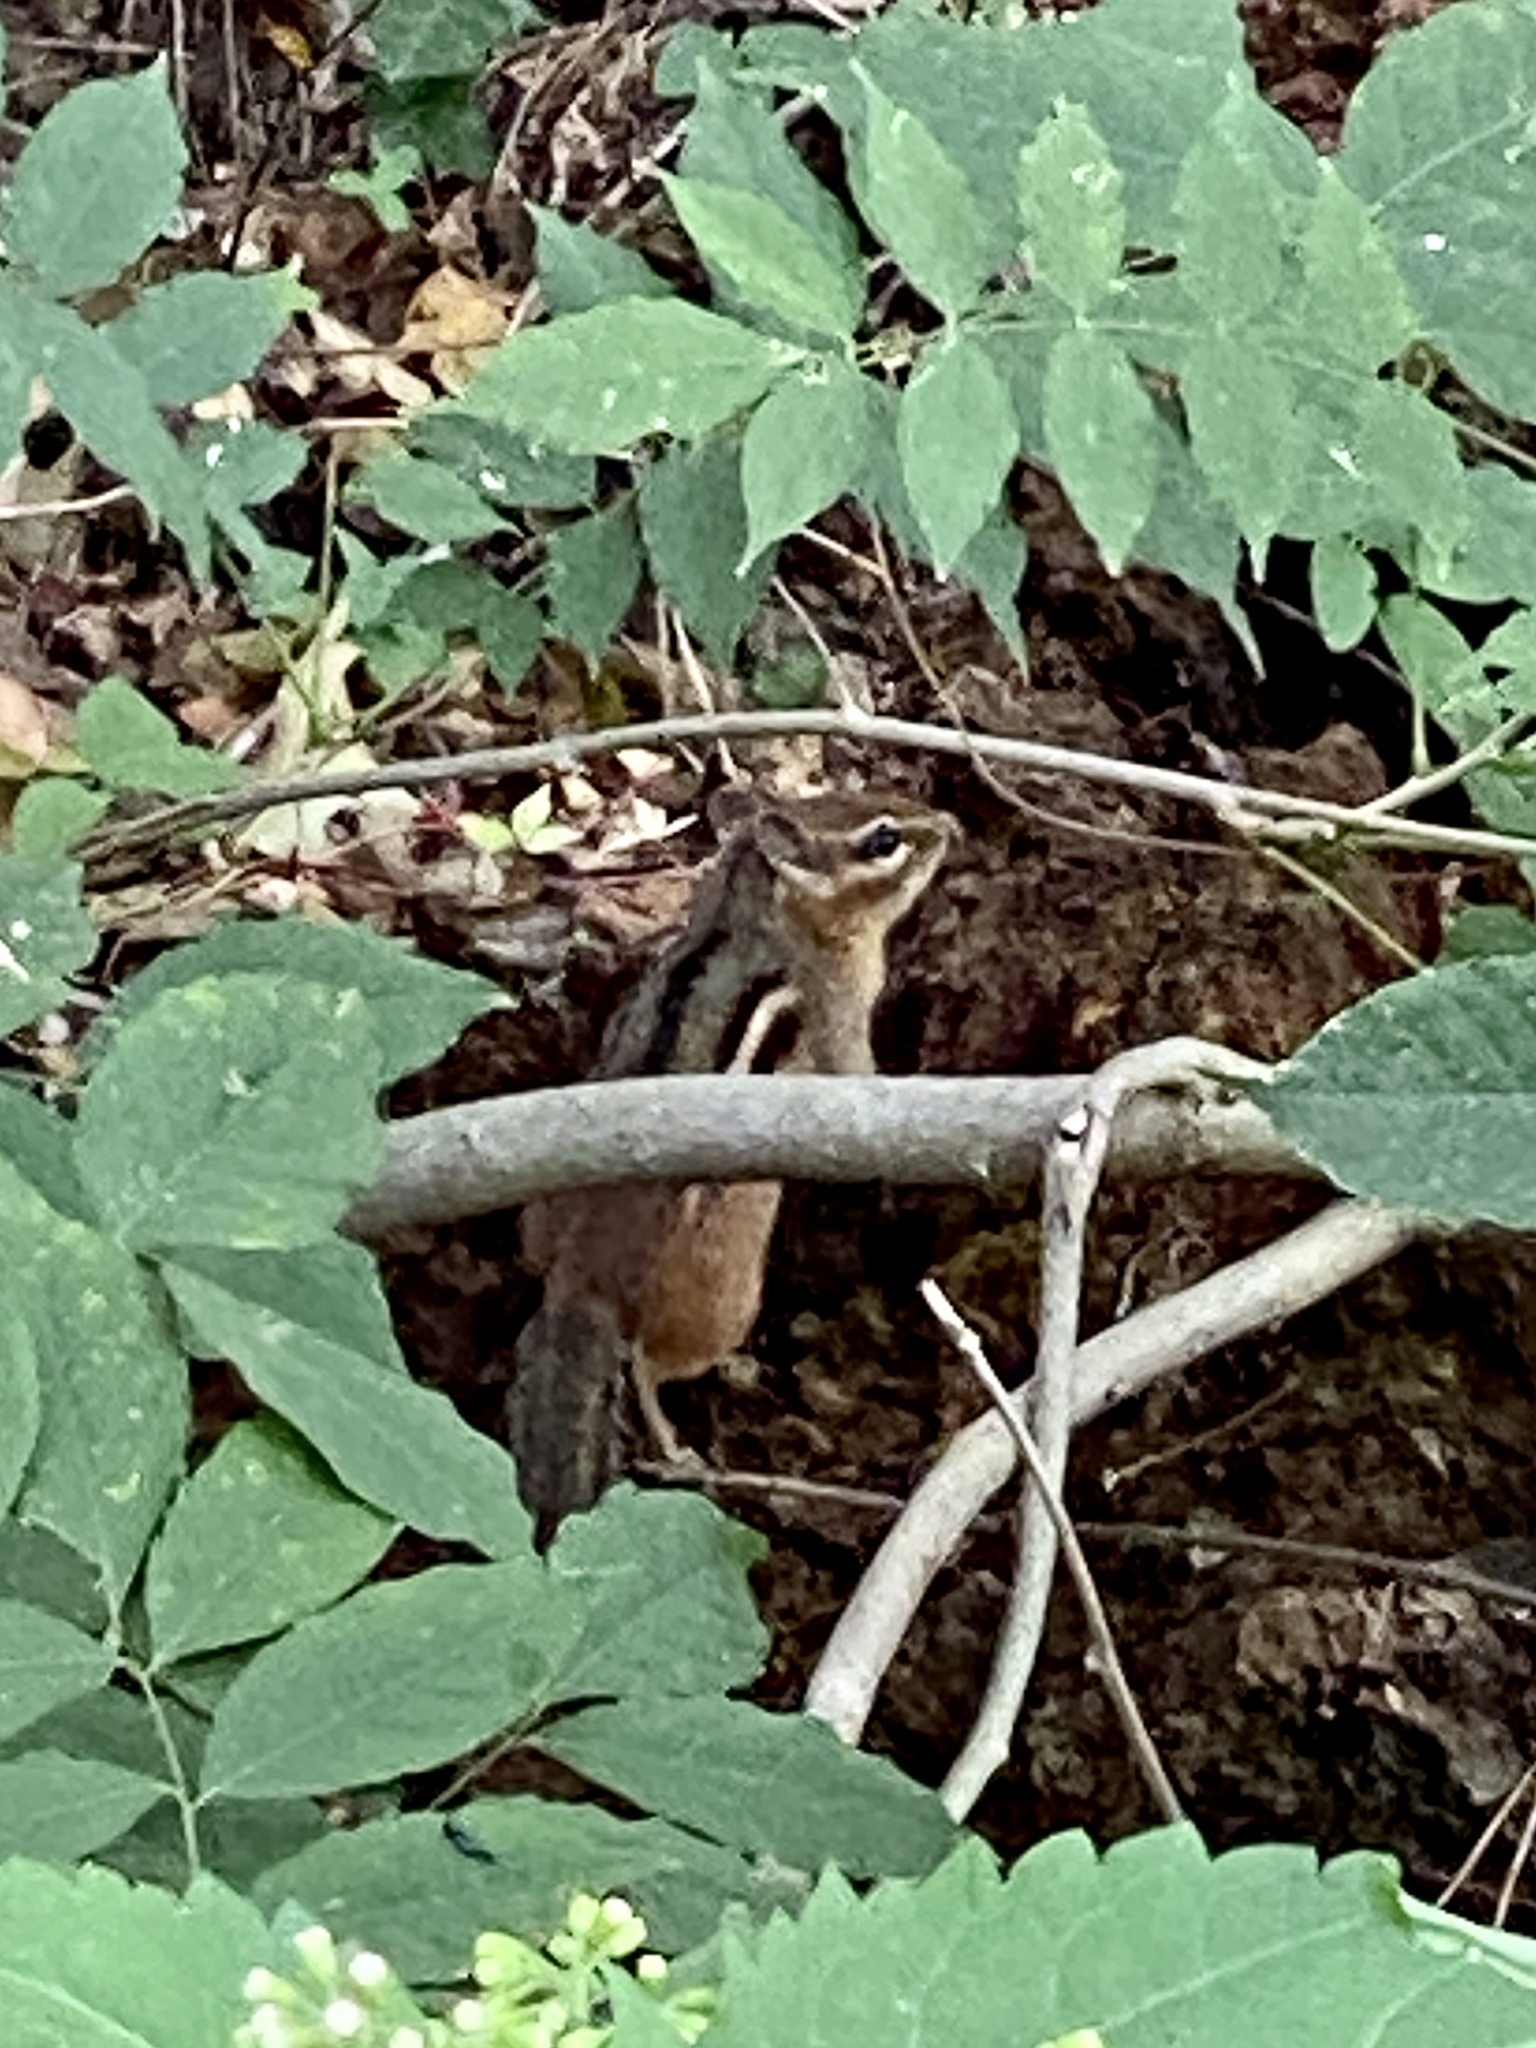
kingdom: Animalia
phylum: Chordata
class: Mammalia
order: Rodentia
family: Sciuridae
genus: Tamias
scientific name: Tamias striatus
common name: Eastern chipmunk
